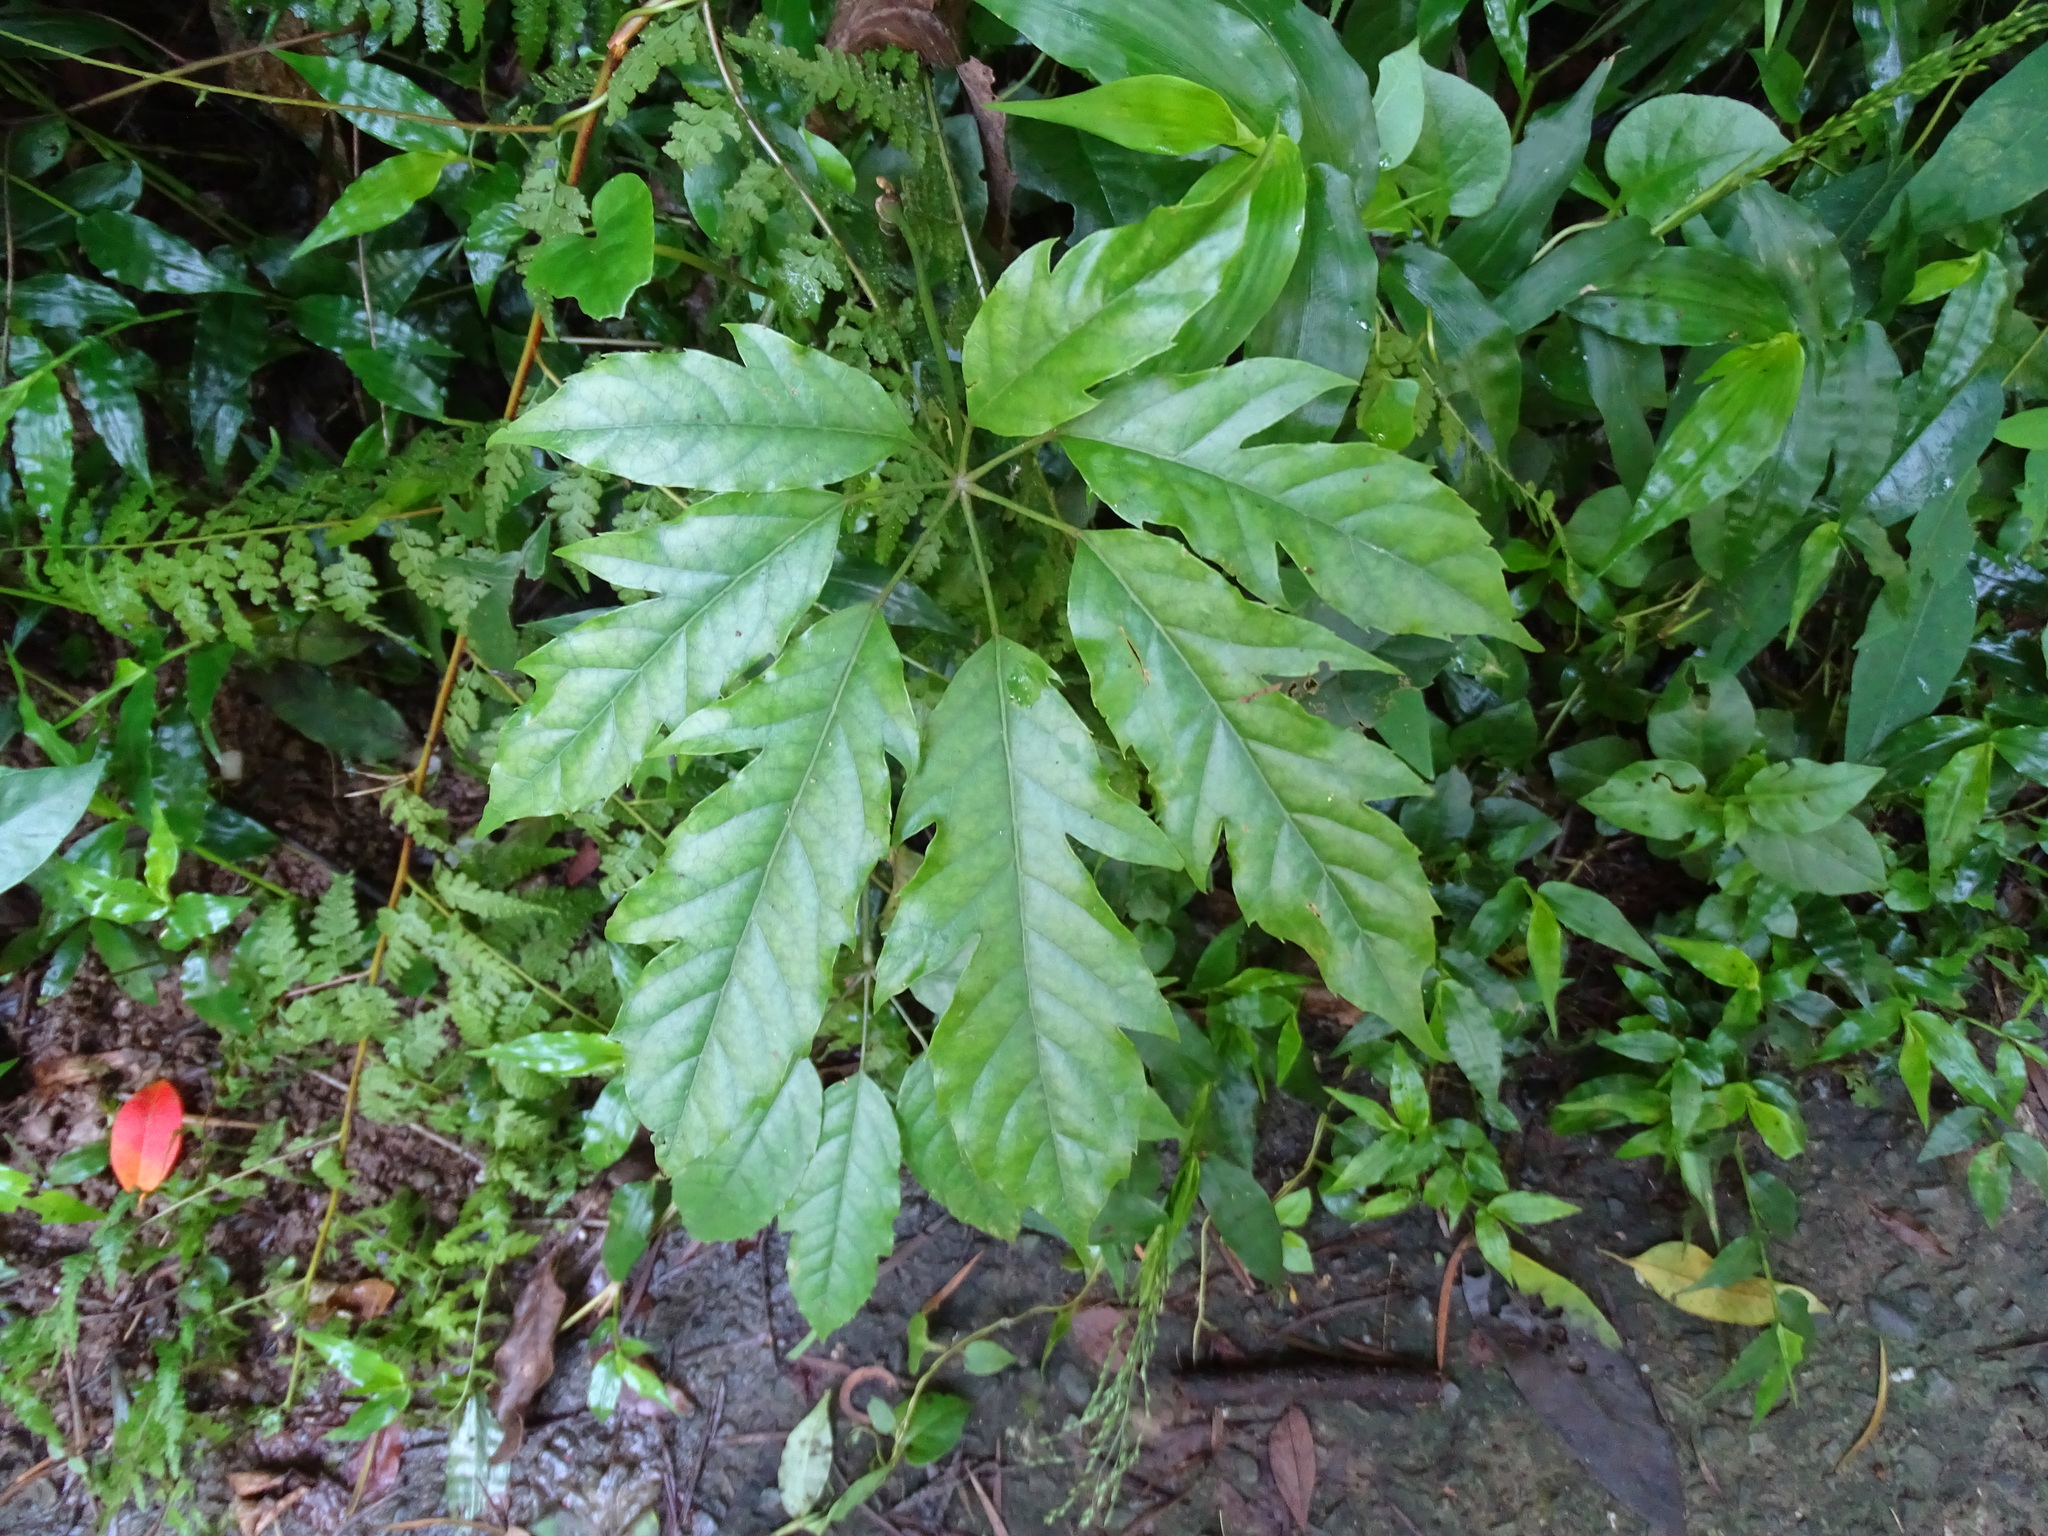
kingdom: Plantae
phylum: Tracheophyta
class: Magnoliopsida
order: Apiales
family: Araliaceae
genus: Heptapleurum
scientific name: Heptapleurum heptaphyllum
